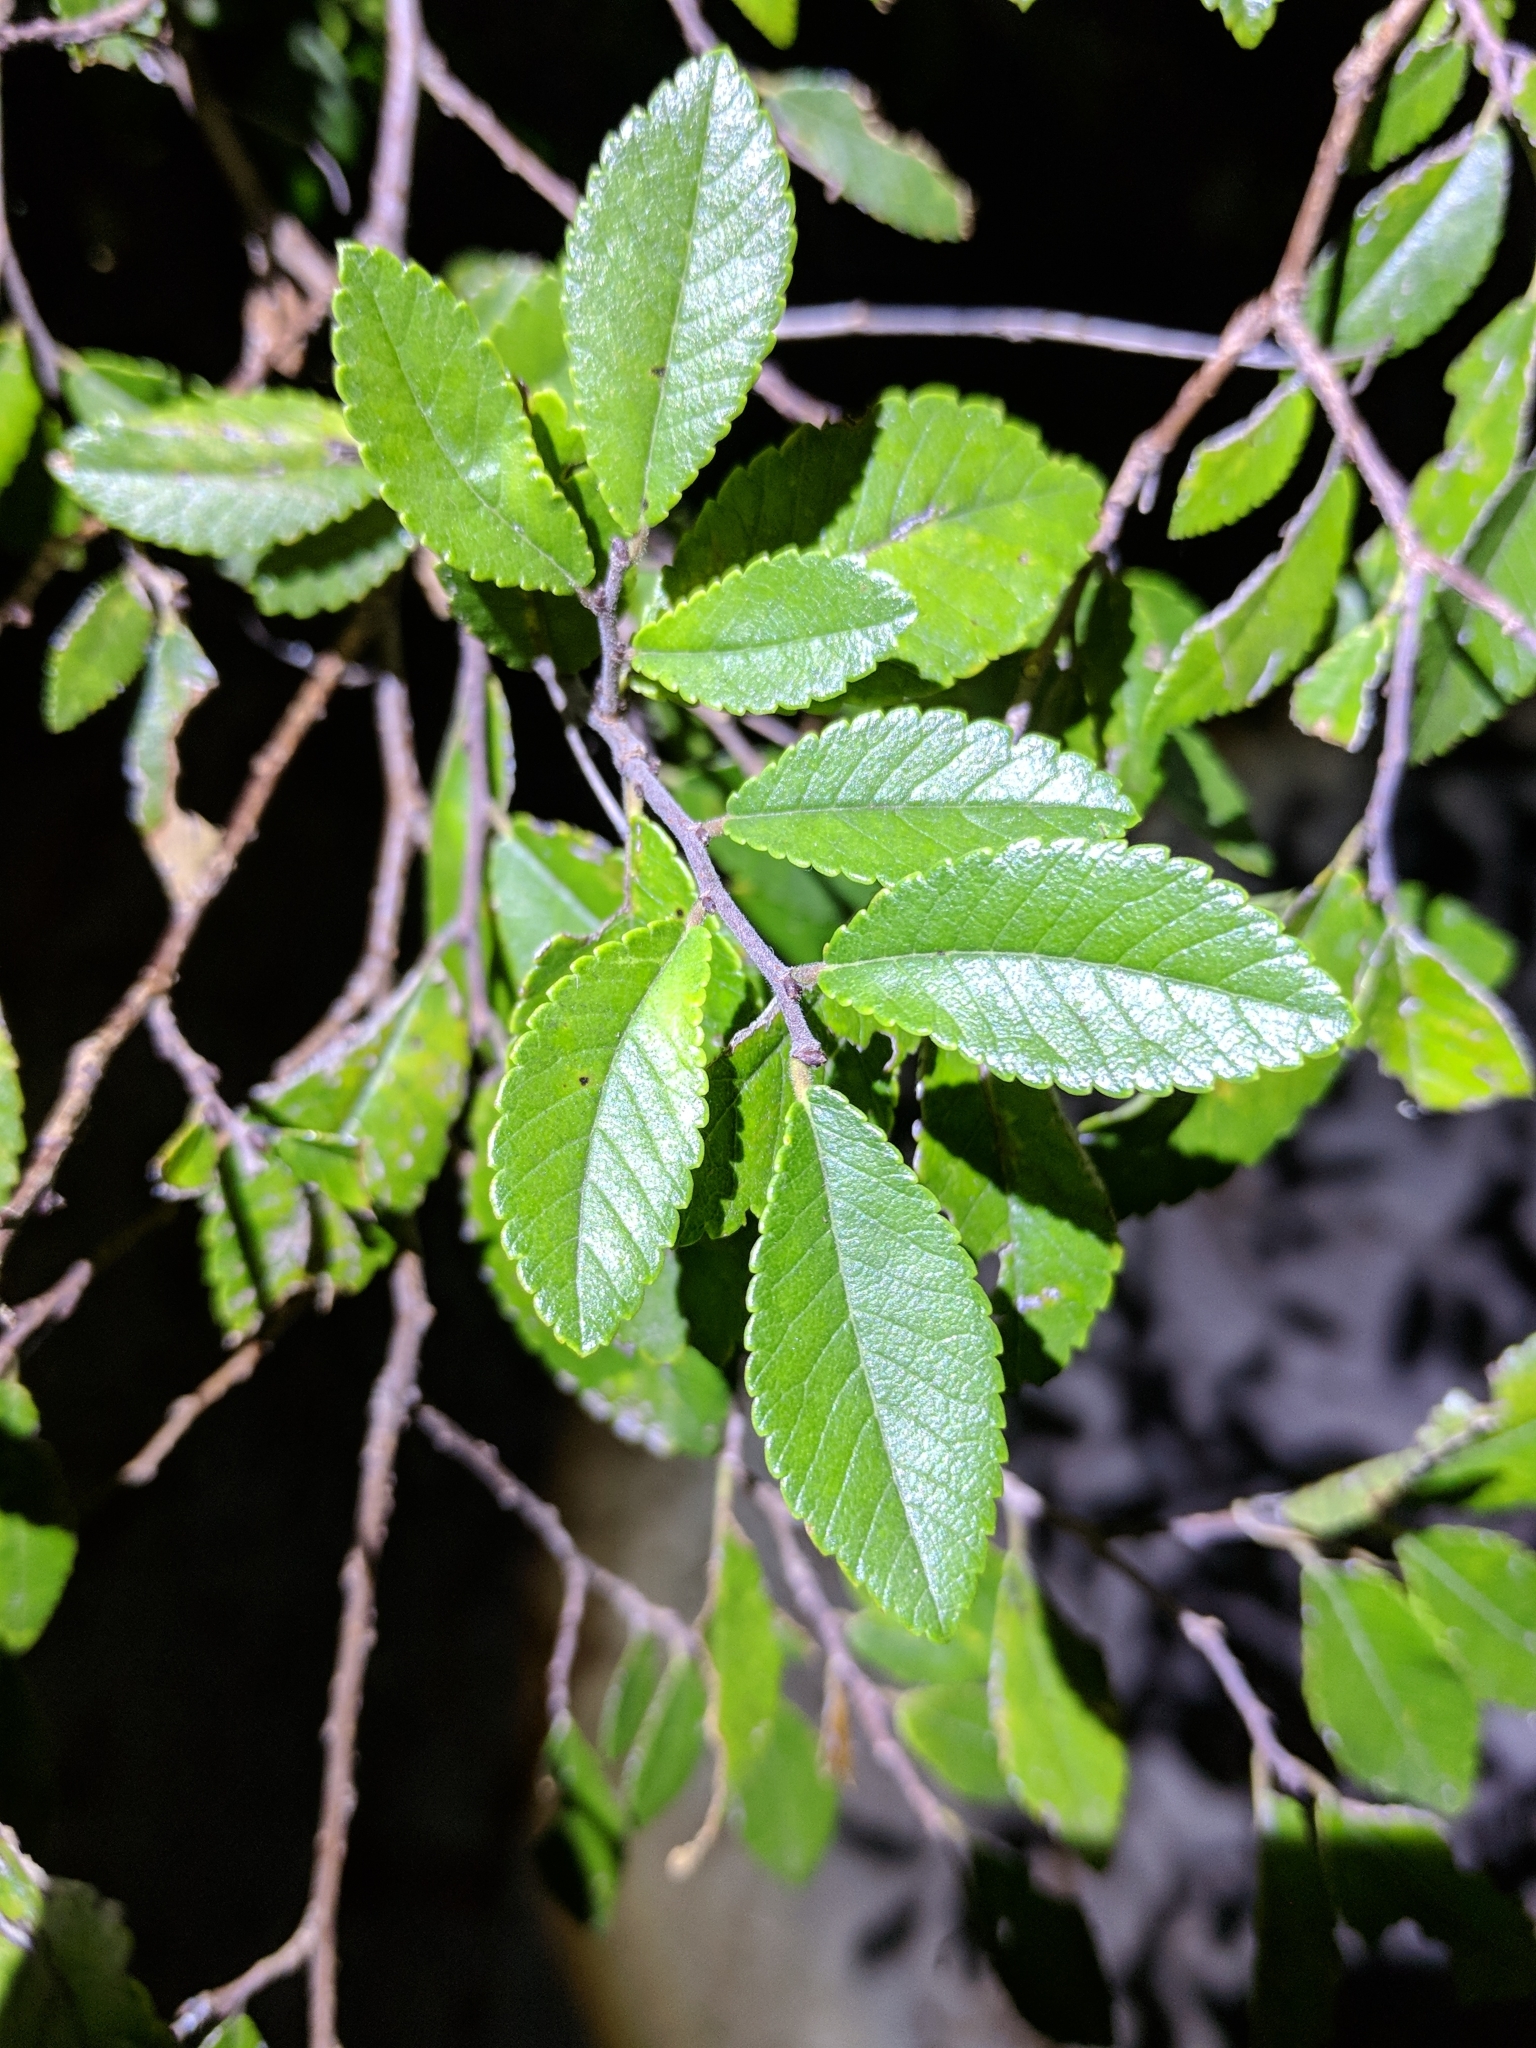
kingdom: Plantae
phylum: Tracheophyta
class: Magnoliopsida
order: Rosales
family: Ulmaceae
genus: Ulmus
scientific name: Ulmus parvifolia
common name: Chinese elm
